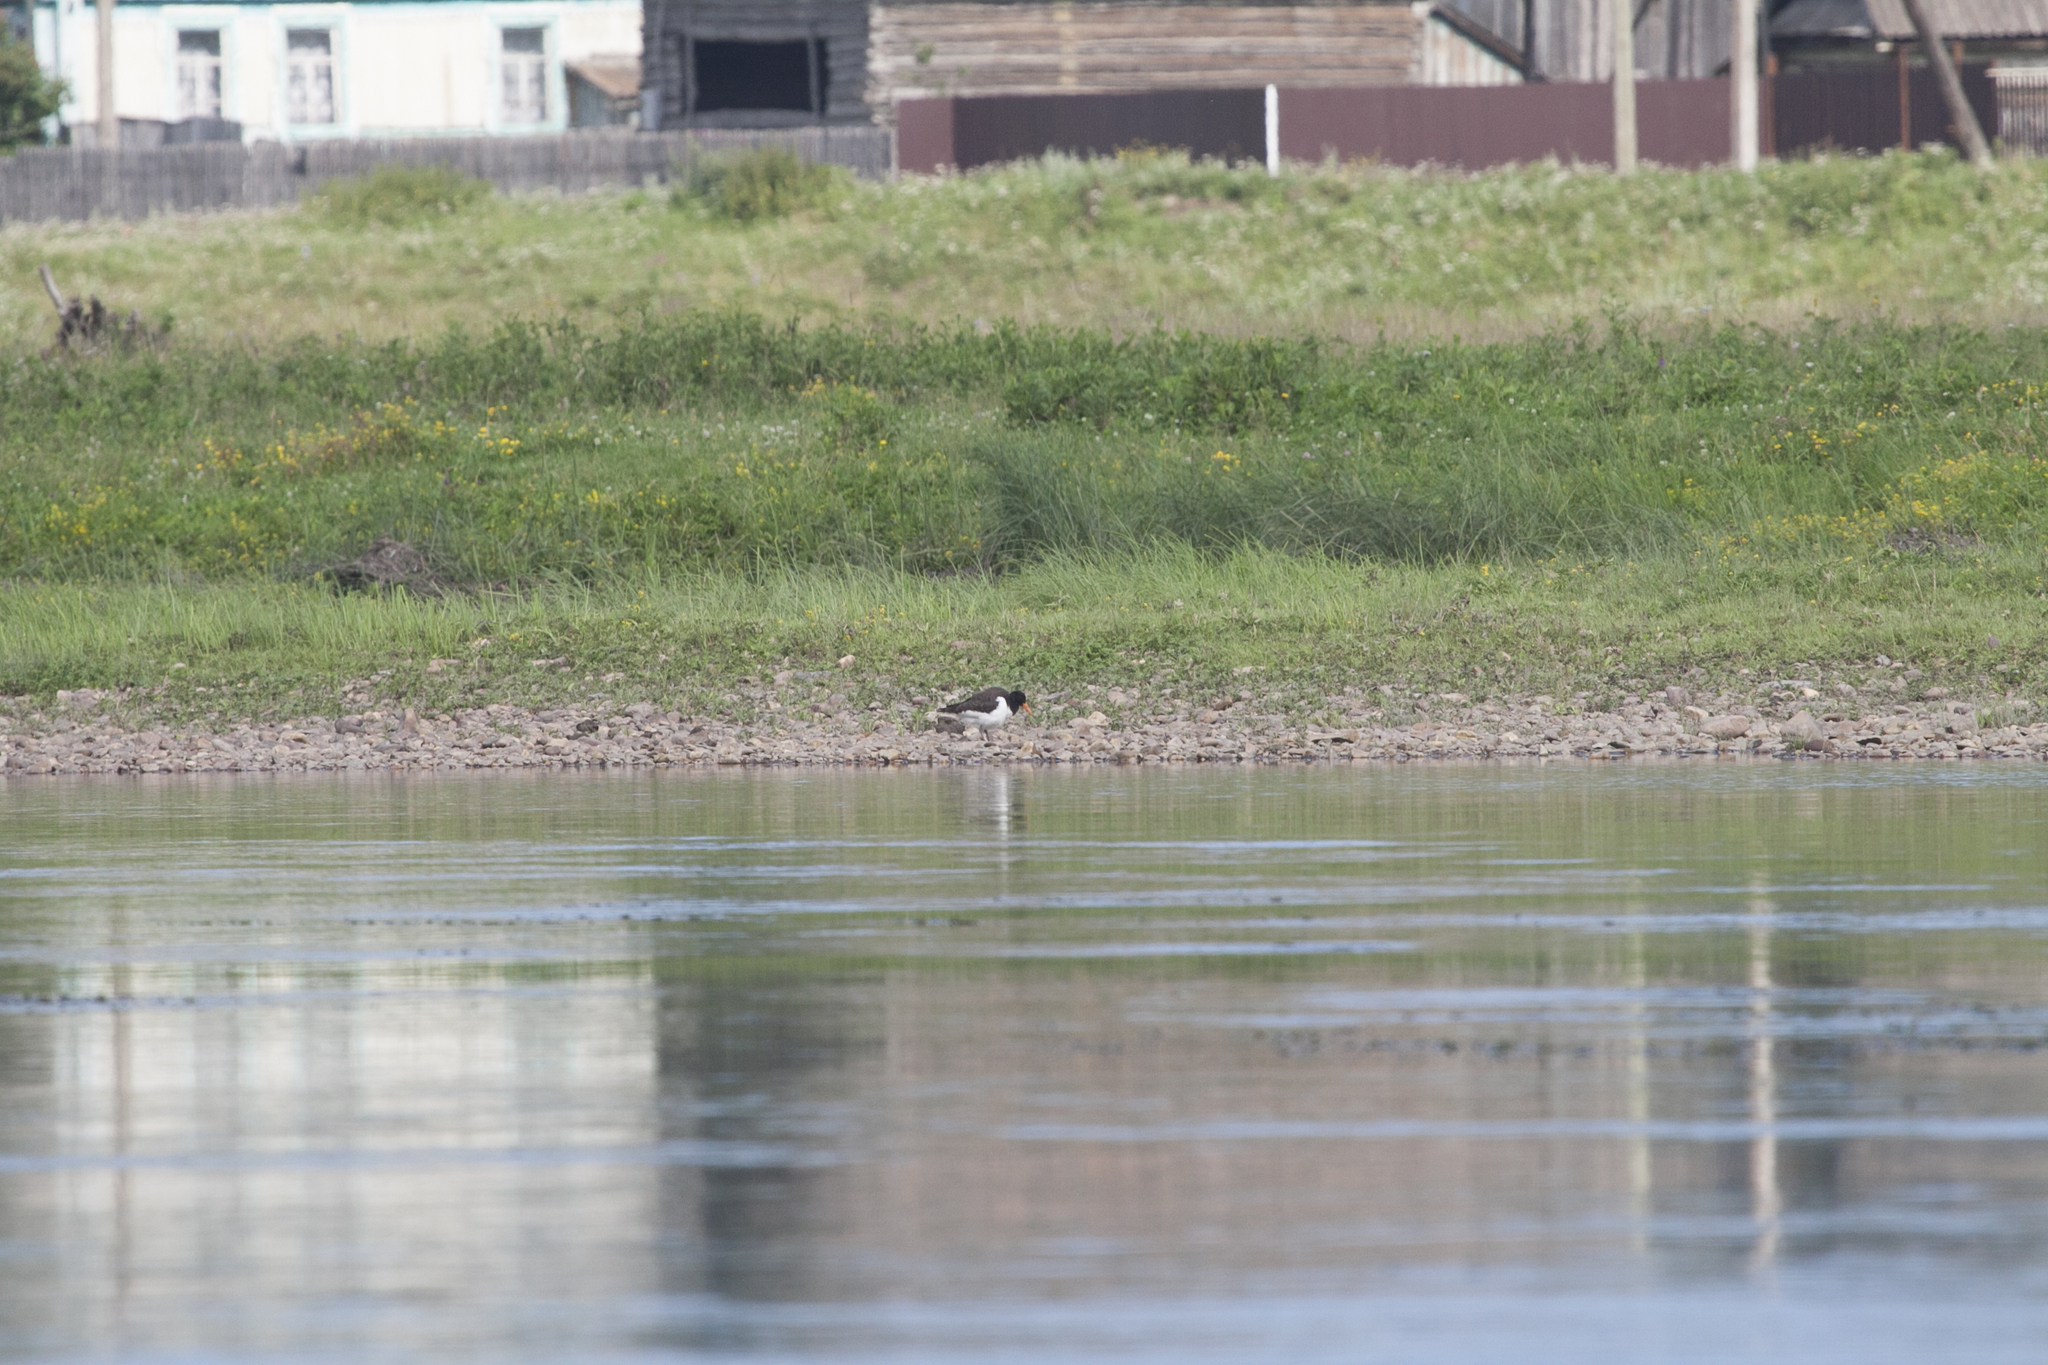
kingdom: Animalia
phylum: Chordata
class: Aves
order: Charadriiformes
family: Haematopodidae
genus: Haematopus
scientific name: Haematopus ostralegus
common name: Eurasian oystercatcher
